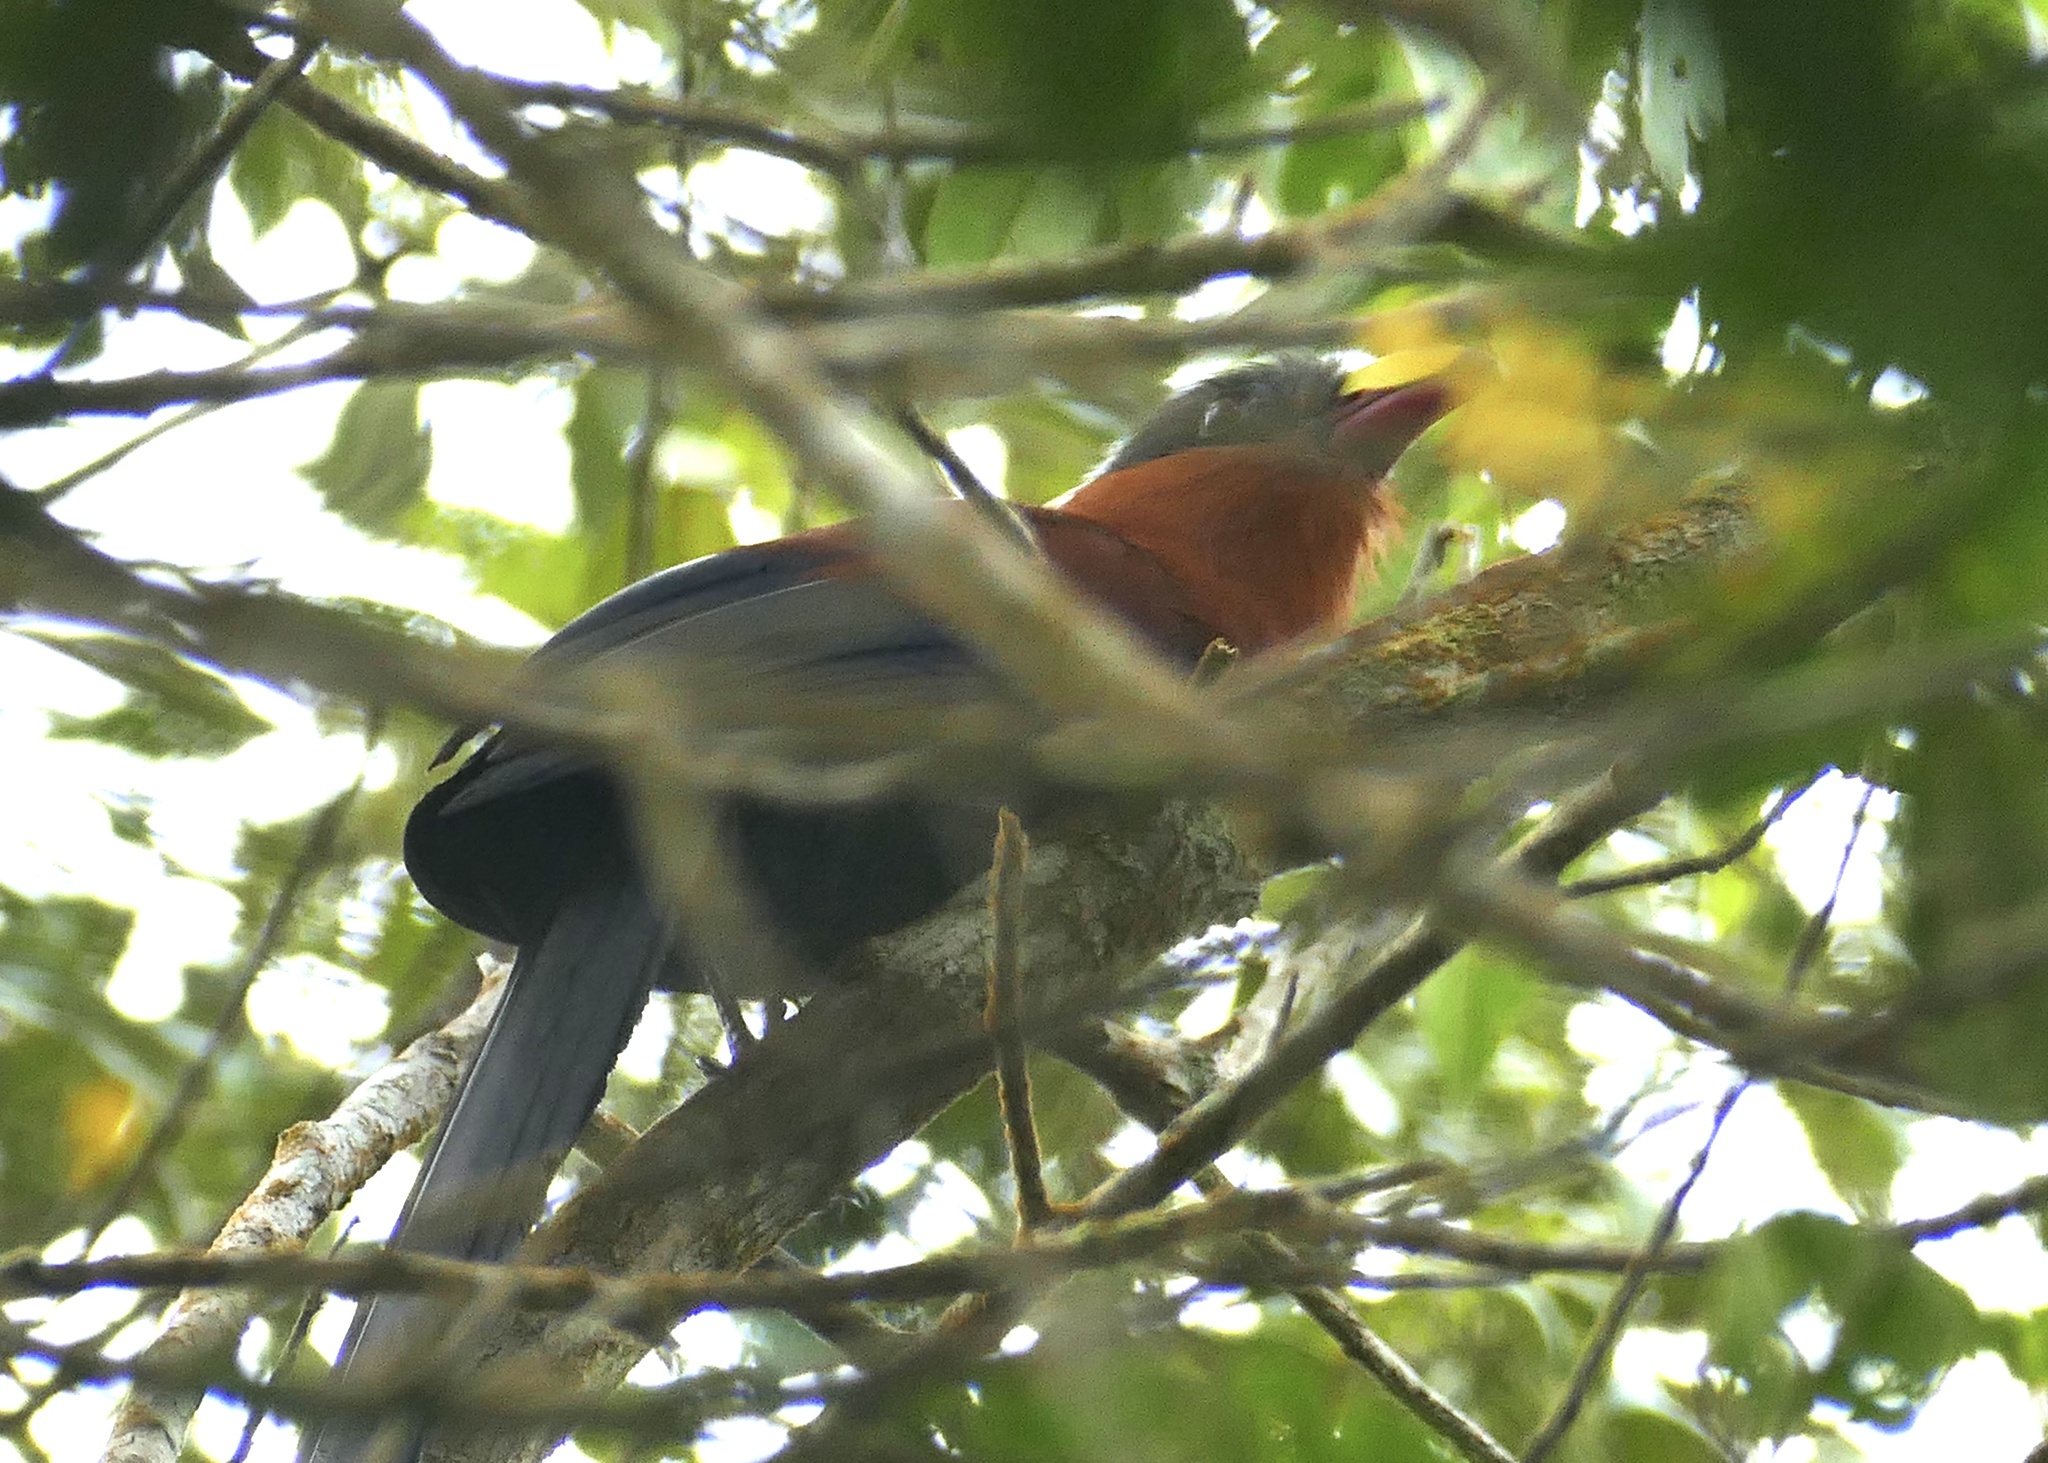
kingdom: Animalia
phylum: Chordata
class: Aves
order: Cuculiformes
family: Cuculidae
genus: Zanclostomus
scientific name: Zanclostomus calyorhynchus
